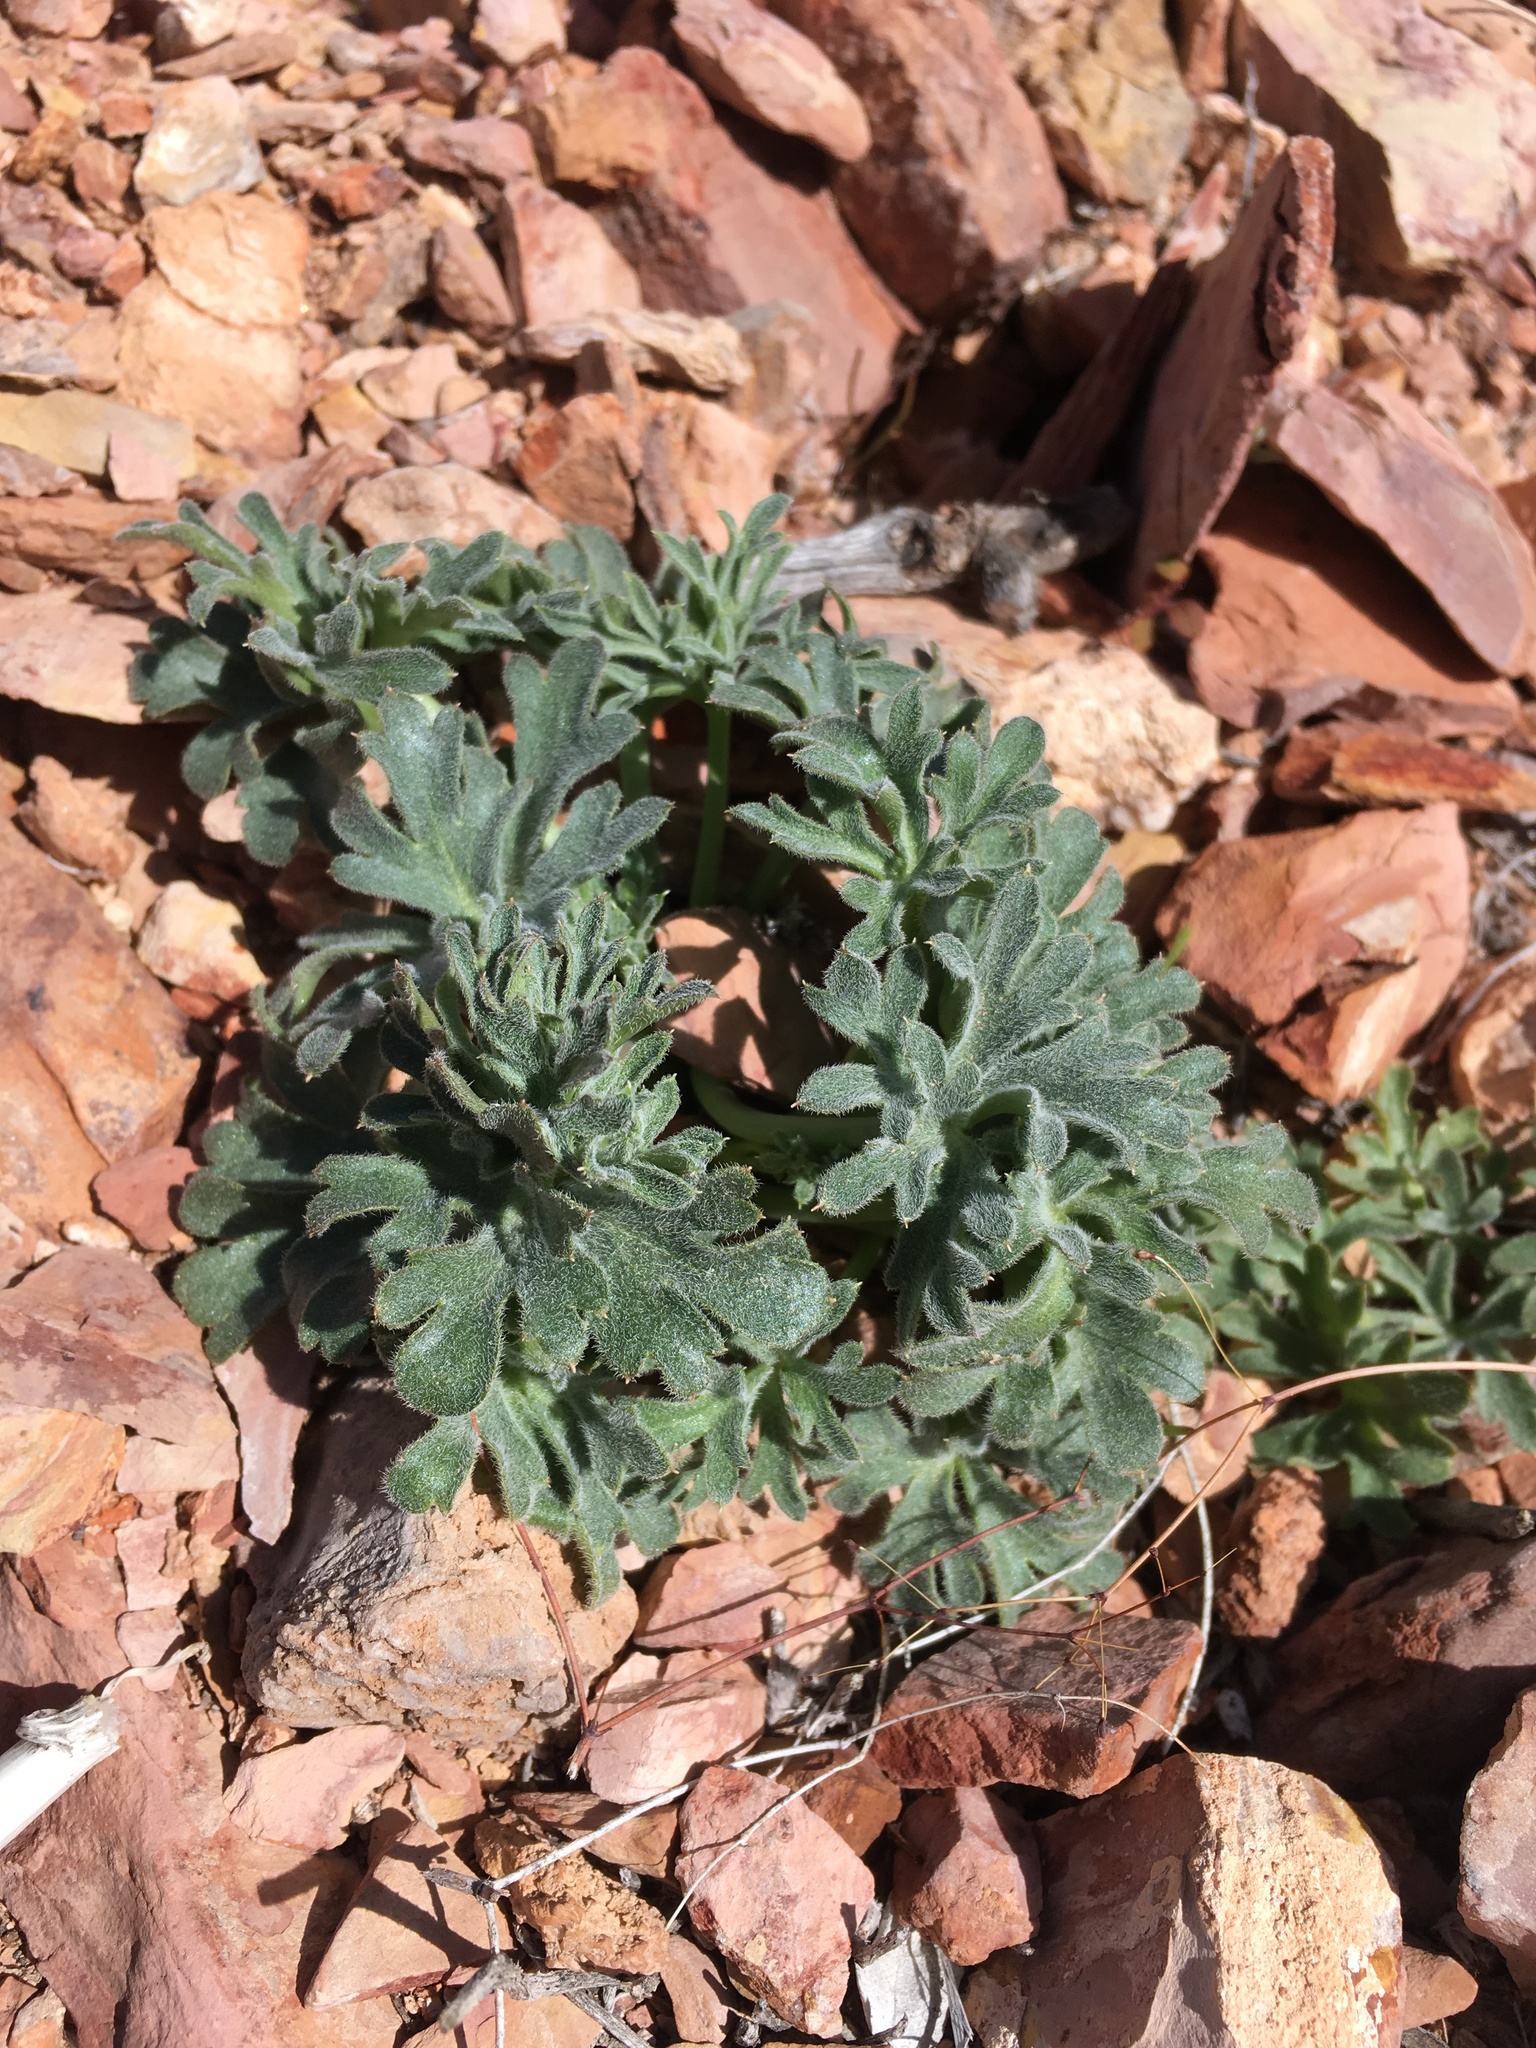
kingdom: Plantae
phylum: Tracheophyta
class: Magnoliopsida
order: Ranunculales
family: Ranunculaceae
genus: Delphinium
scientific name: Delphinium parishii
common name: Apache larkspur
